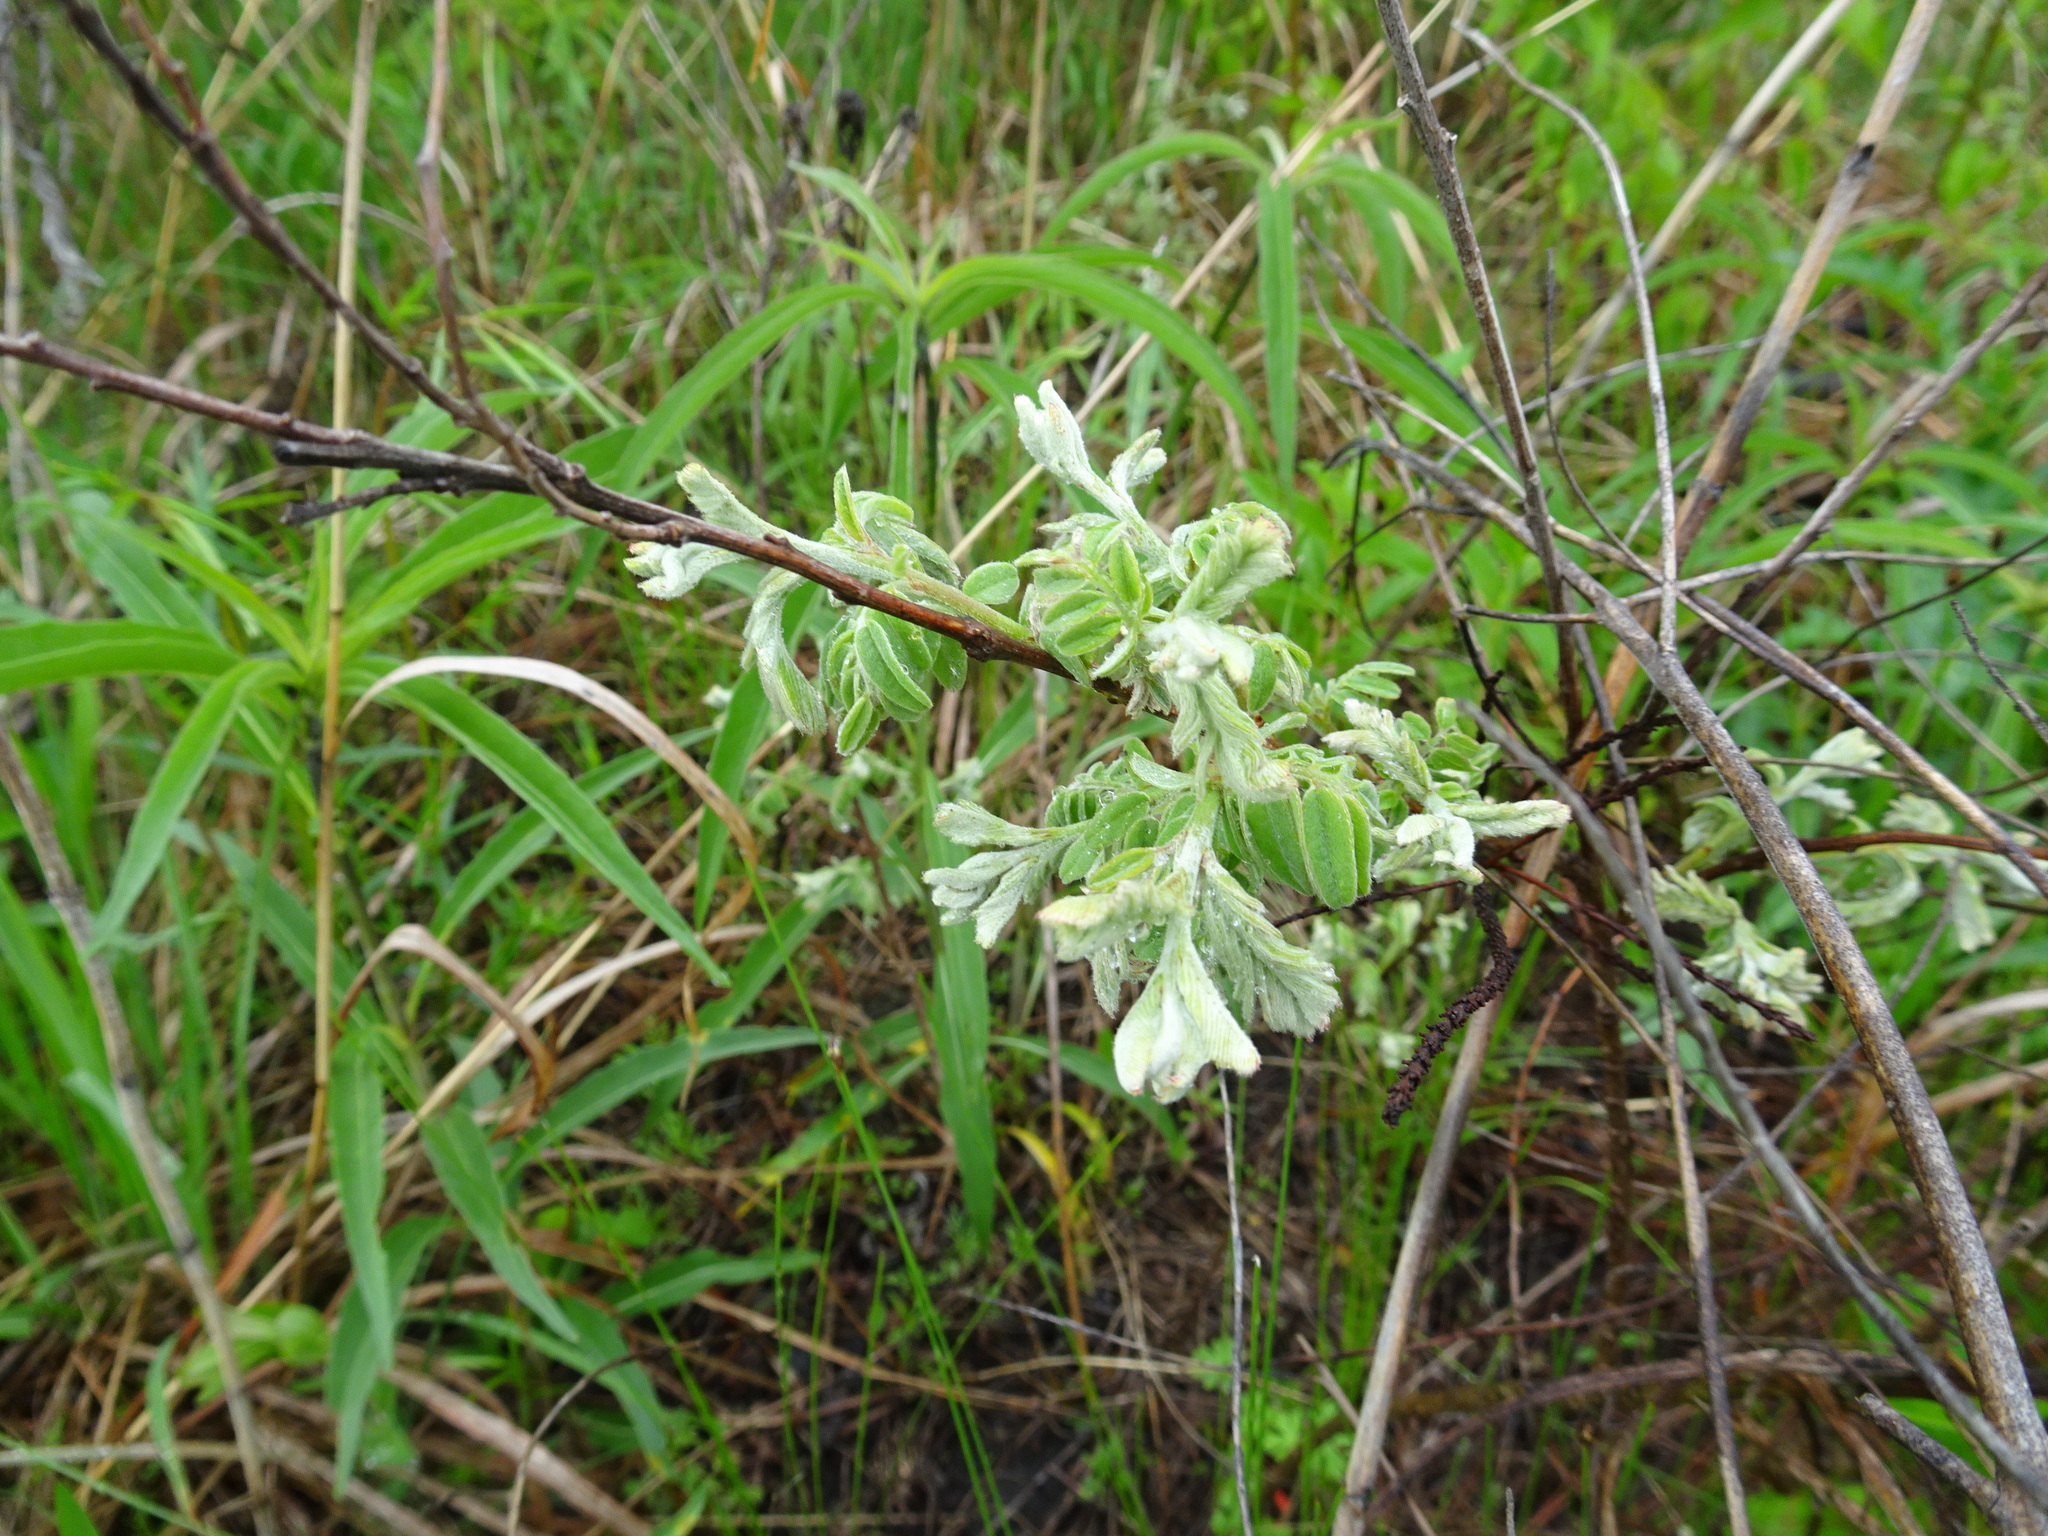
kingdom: Plantae
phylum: Tracheophyta
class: Magnoliopsida
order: Fabales
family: Fabaceae
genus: Amorpha
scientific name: Amorpha canescens
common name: Leadplant
